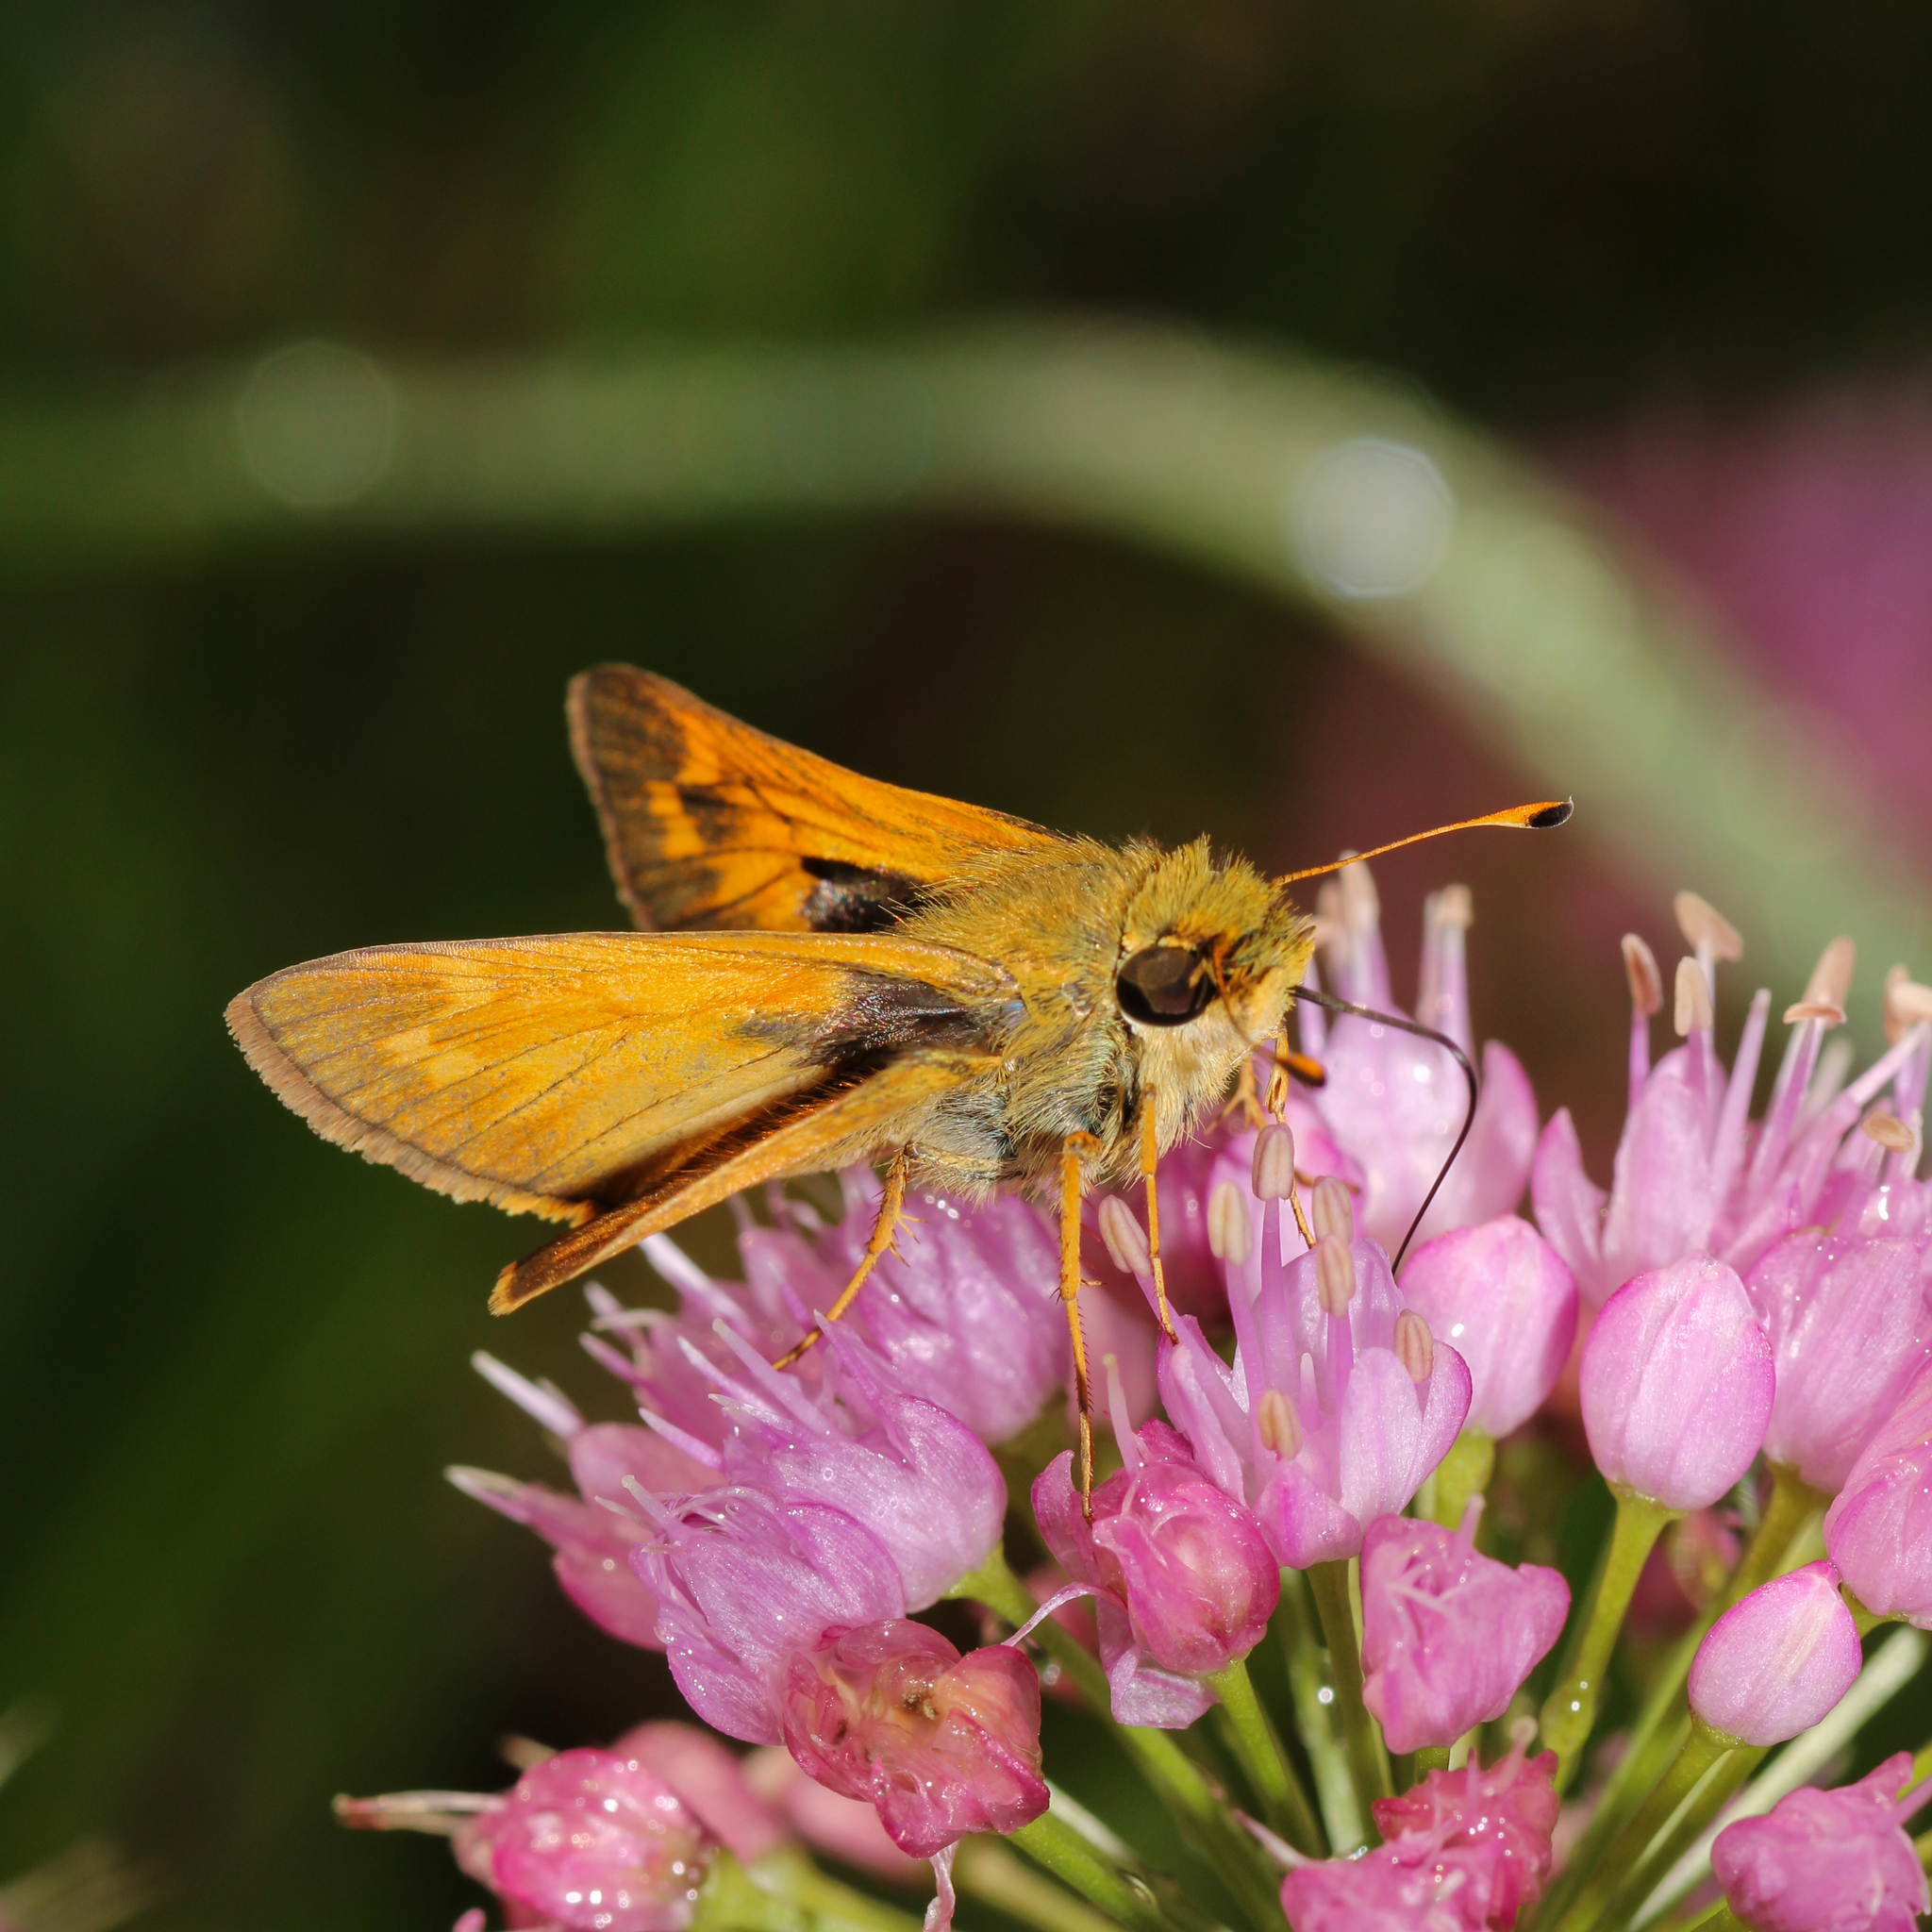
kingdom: Animalia
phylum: Arthropoda
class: Insecta
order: Lepidoptera
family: Hesperiidae
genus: Atalopedes
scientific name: Atalopedes
